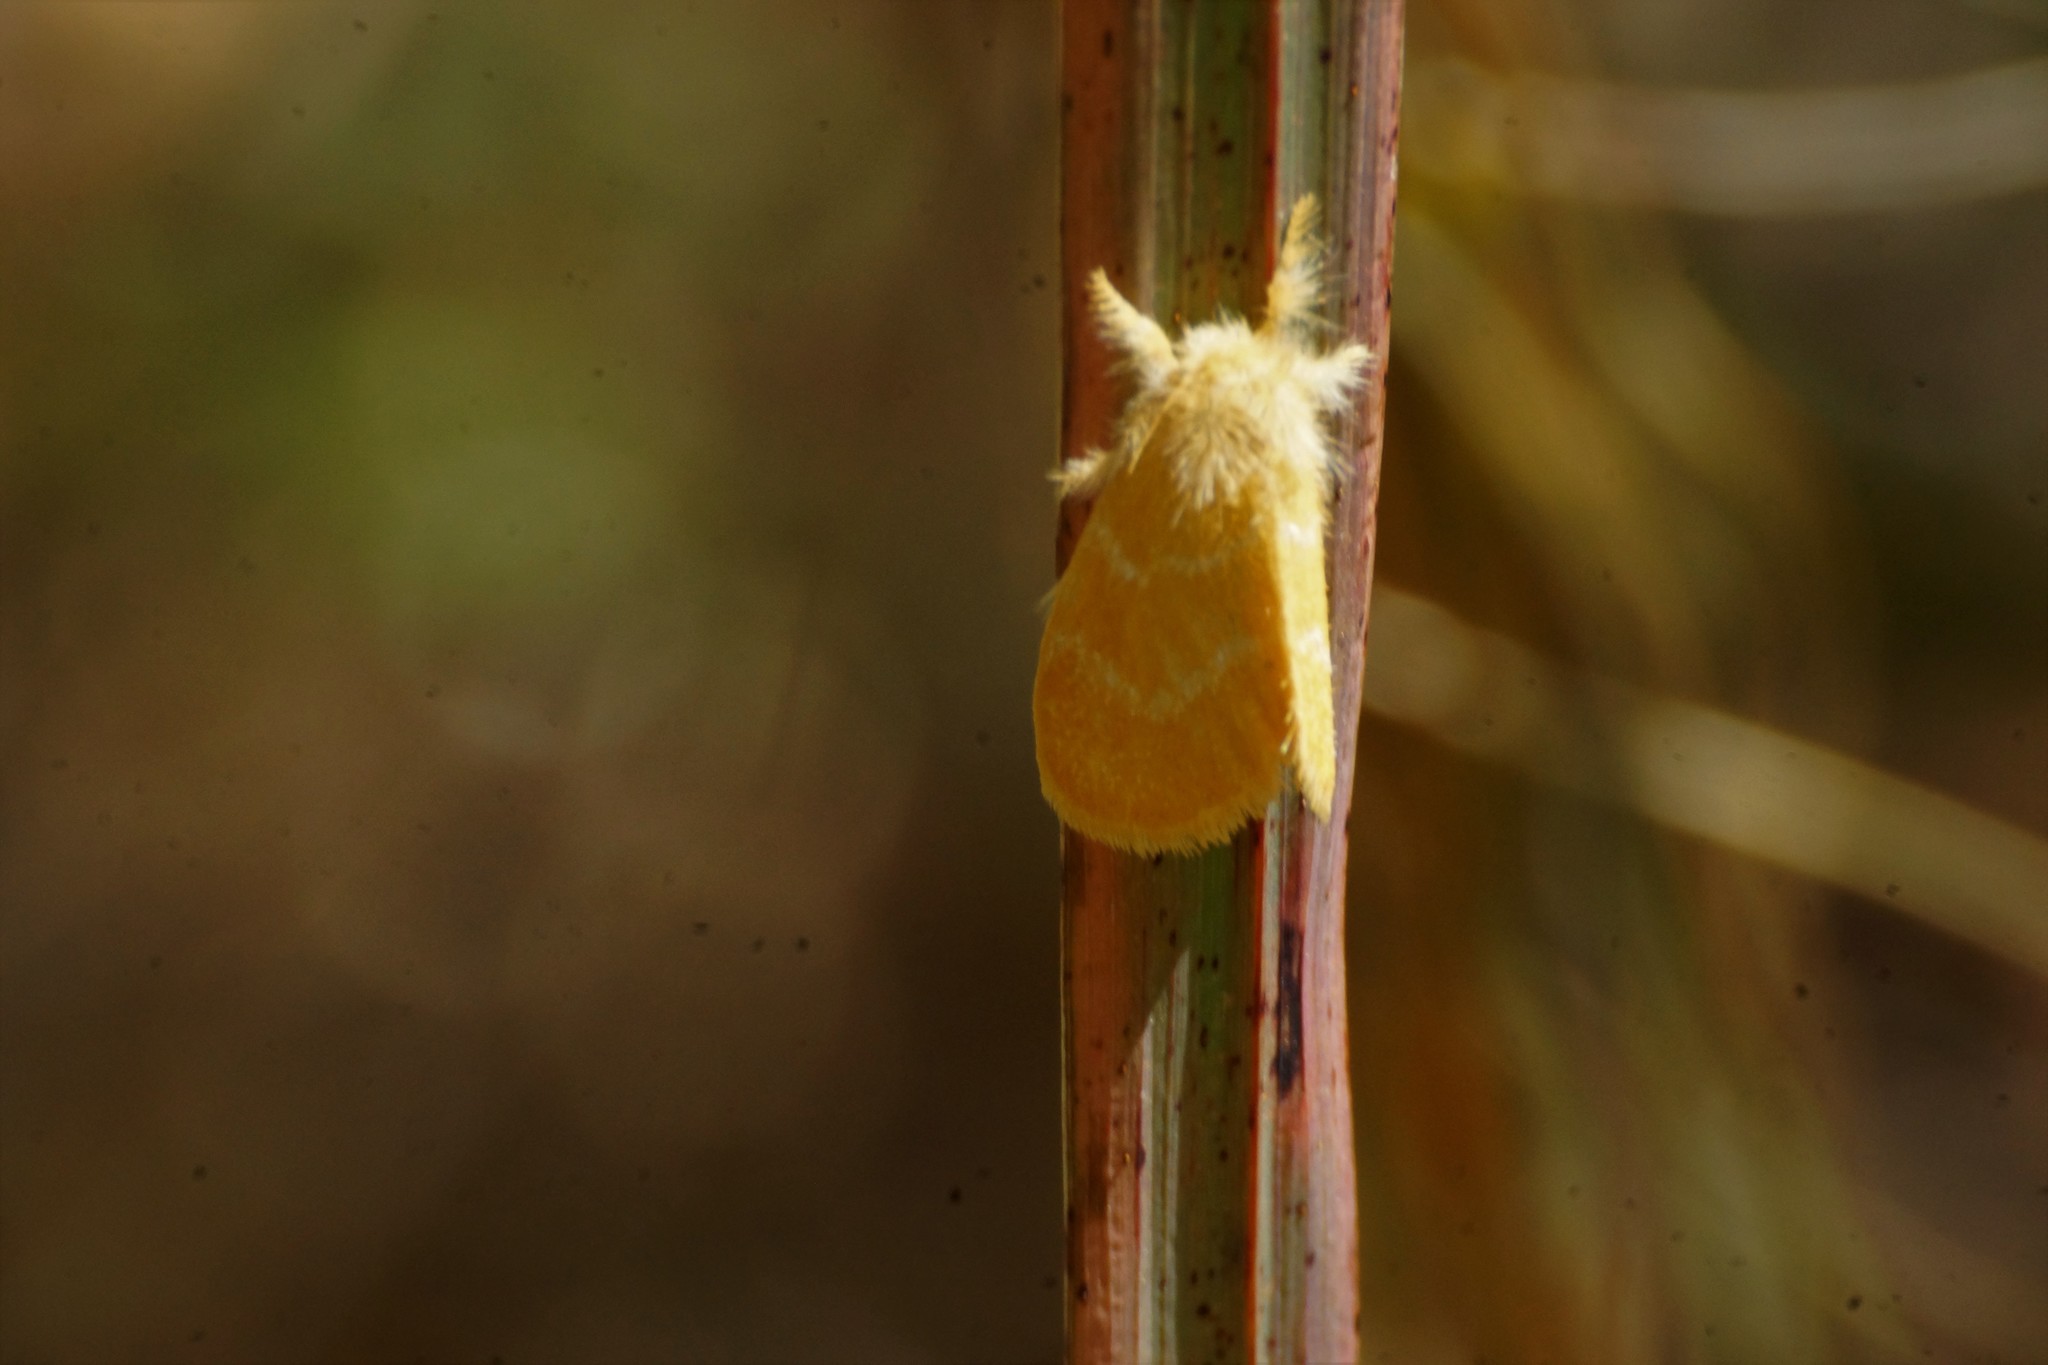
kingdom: Animalia
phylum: Arthropoda
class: Insecta
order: Lepidoptera
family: Erebidae
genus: Euproctis
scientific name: Euproctis lutea
